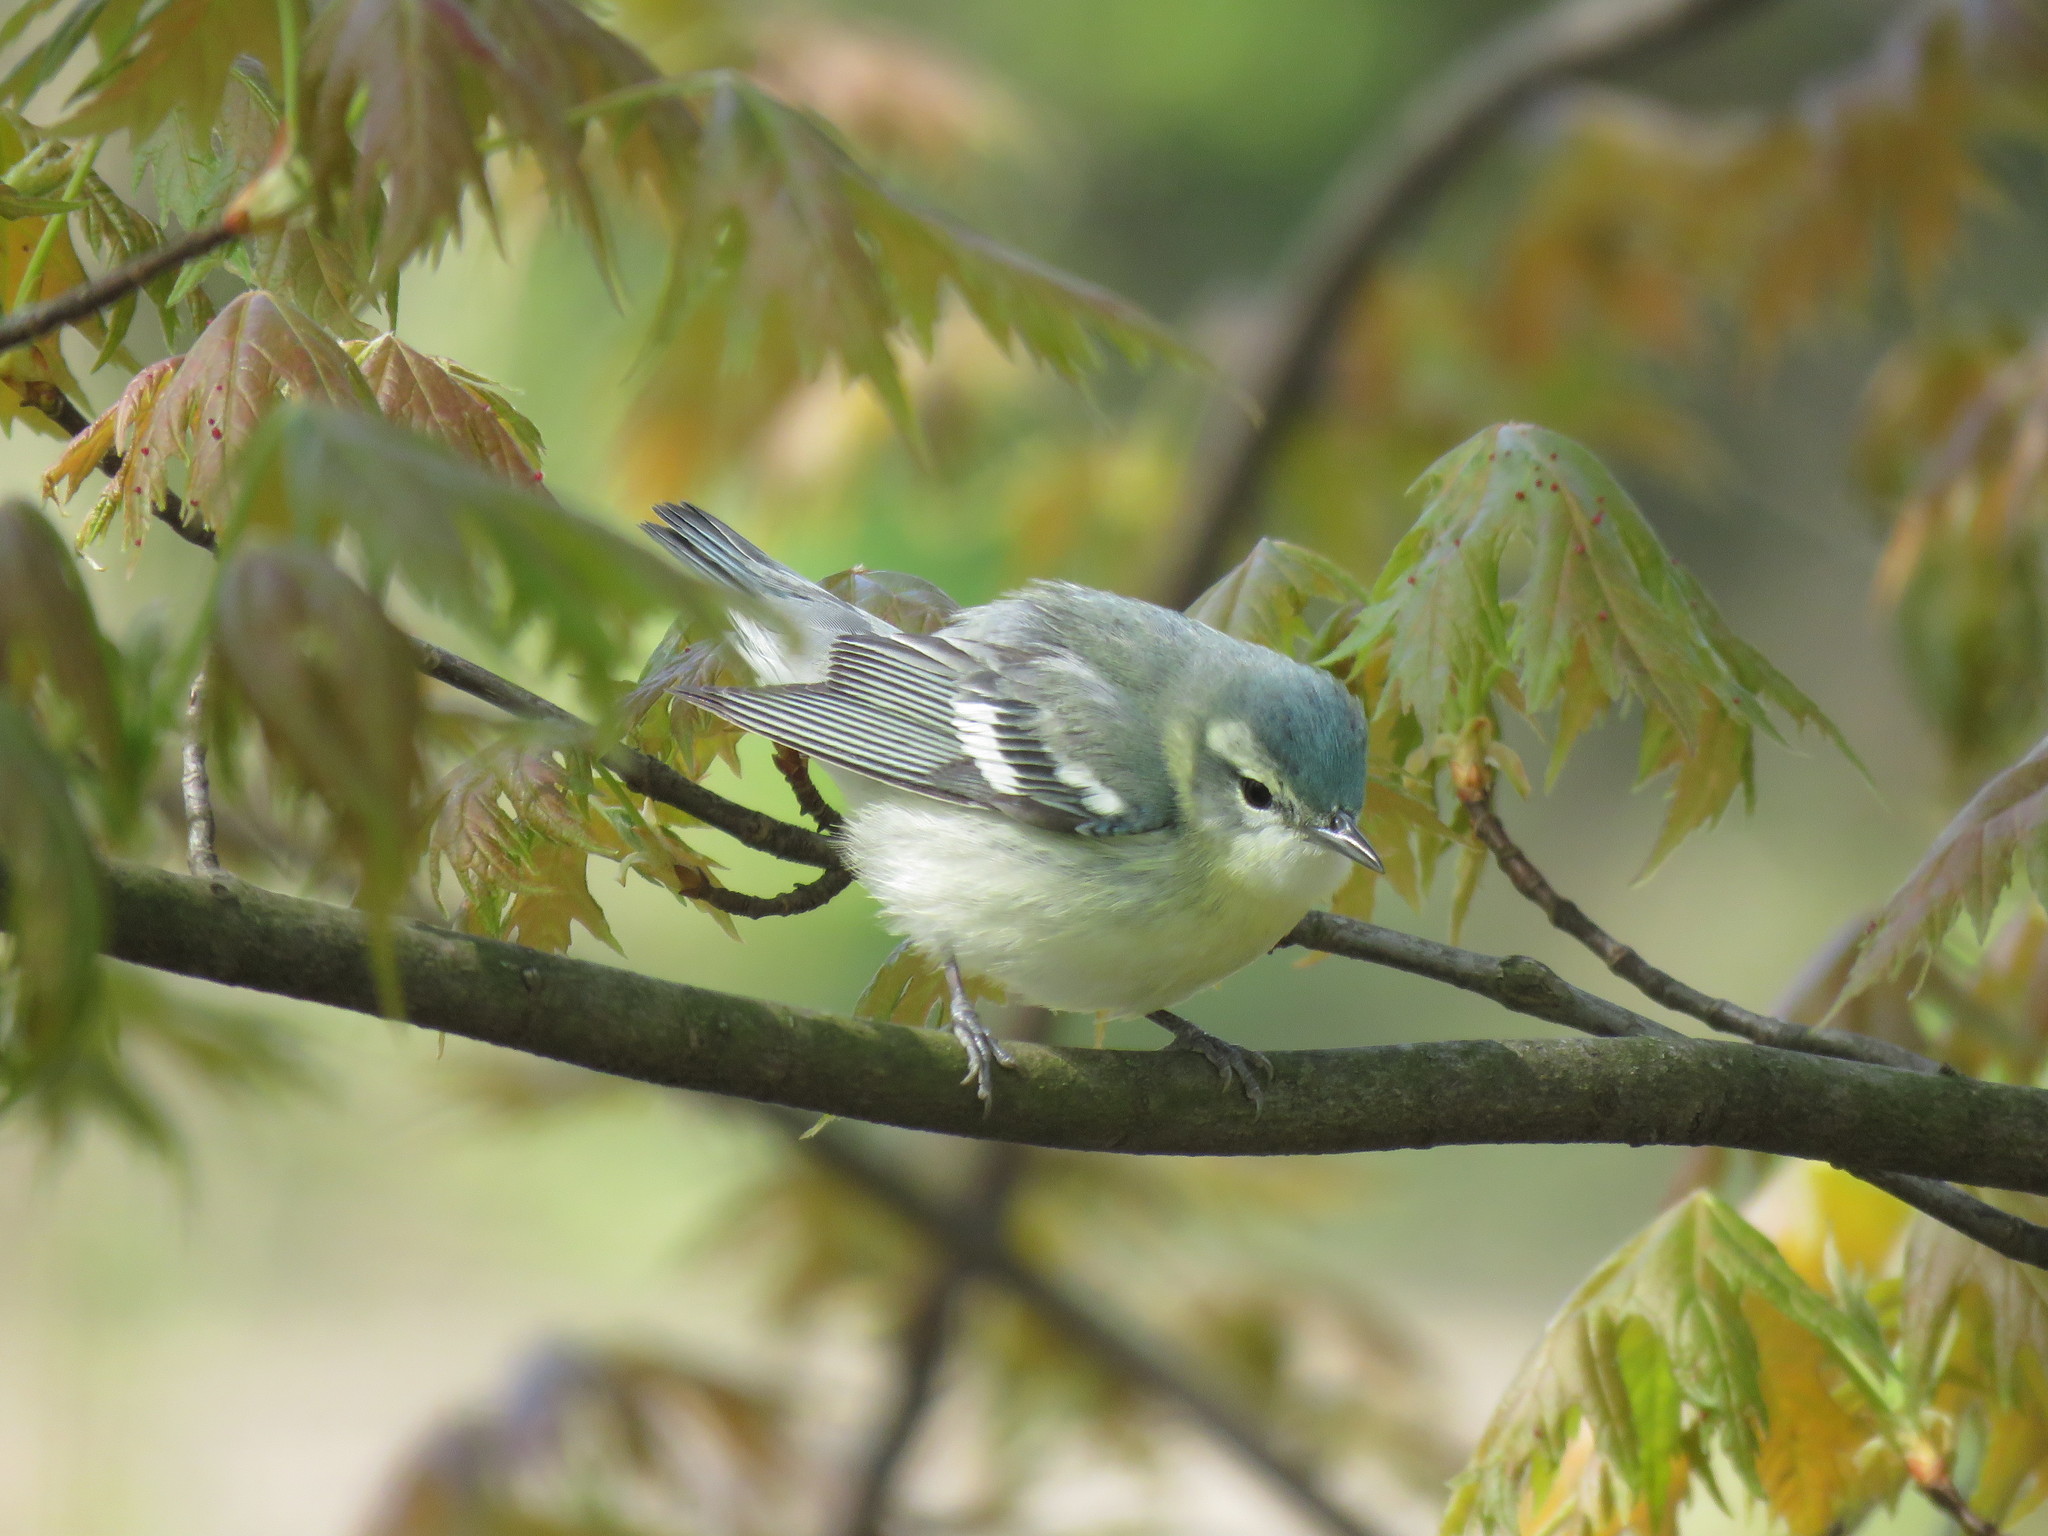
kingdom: Animalia
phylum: Chordata
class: Aves
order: Passeriformes
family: Parulidae
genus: Setophaga
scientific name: Setophaga cerulea
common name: Cerulean warbler
